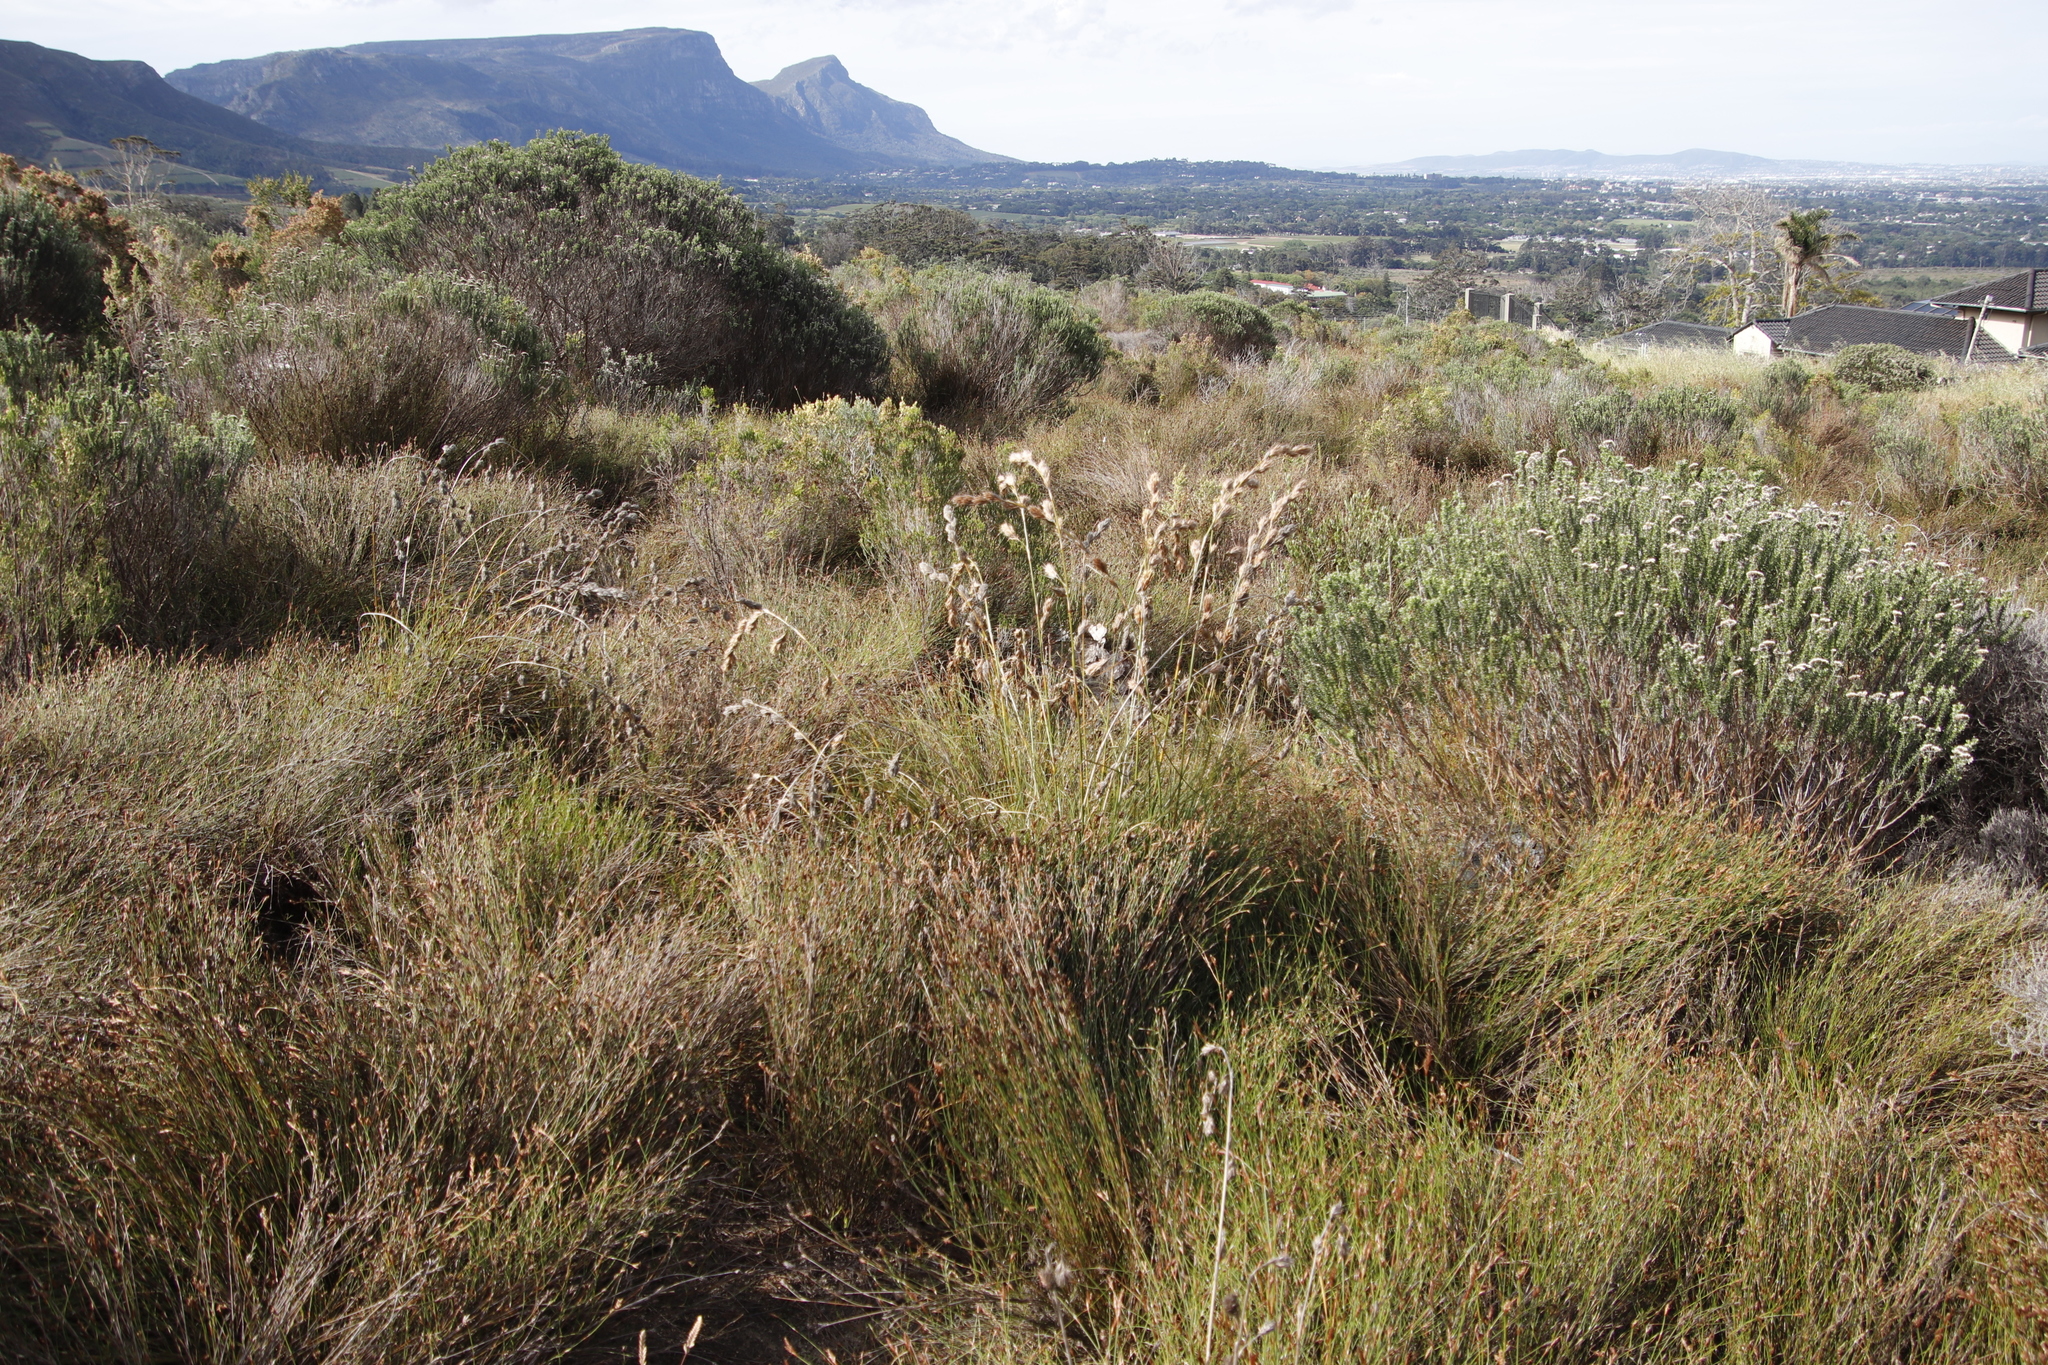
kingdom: Plantae
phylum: Tracheophyta
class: Liliopsida
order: Poales
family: Cyperaceae
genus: Tetraria
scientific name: Tetraria bromoides
